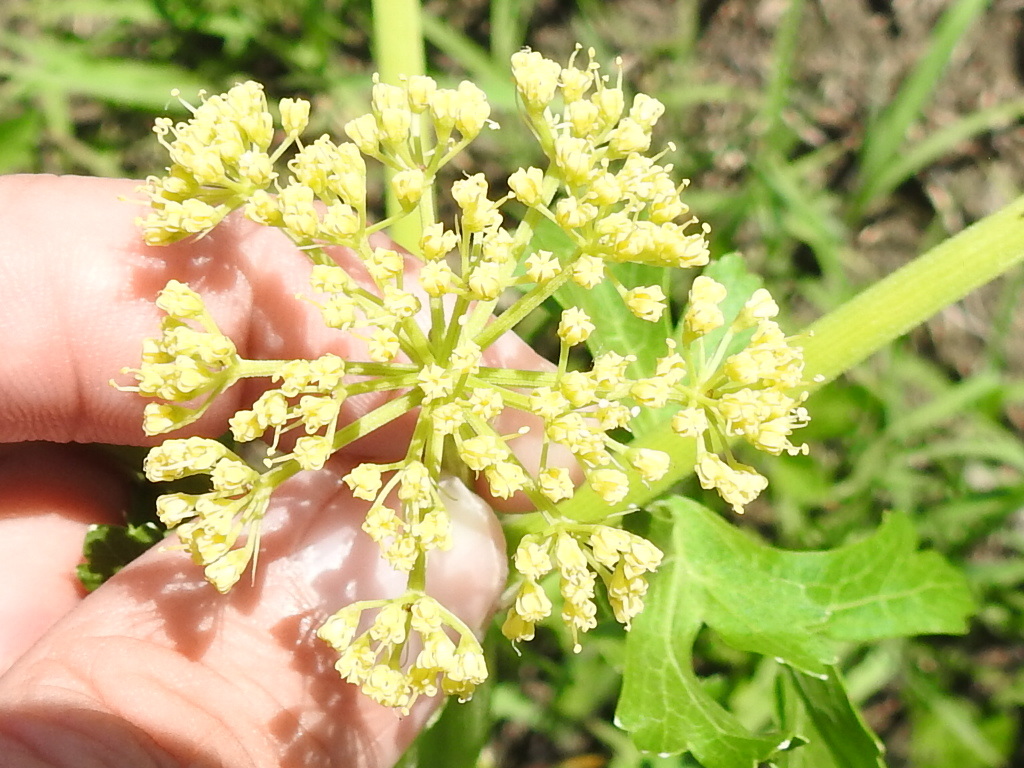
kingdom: Plantae
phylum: Tracheophyta
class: Magnoliopsida
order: Apiales
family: Apiaceae
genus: Polytaenia
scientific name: Polytaenia texana
